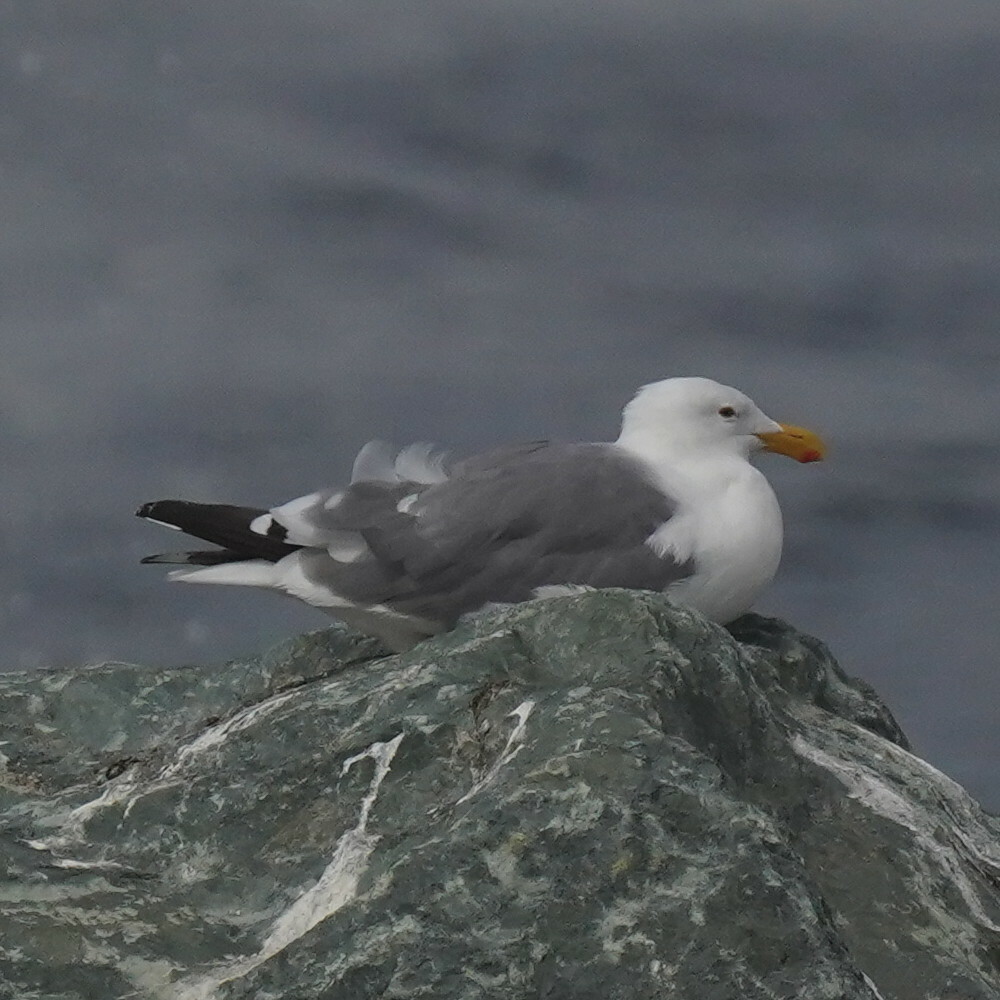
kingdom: Animalia
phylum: Chordata
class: Aves
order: Charadriiformes
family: Laridae
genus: Larus
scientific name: Larus occidentalis
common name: Western gull
